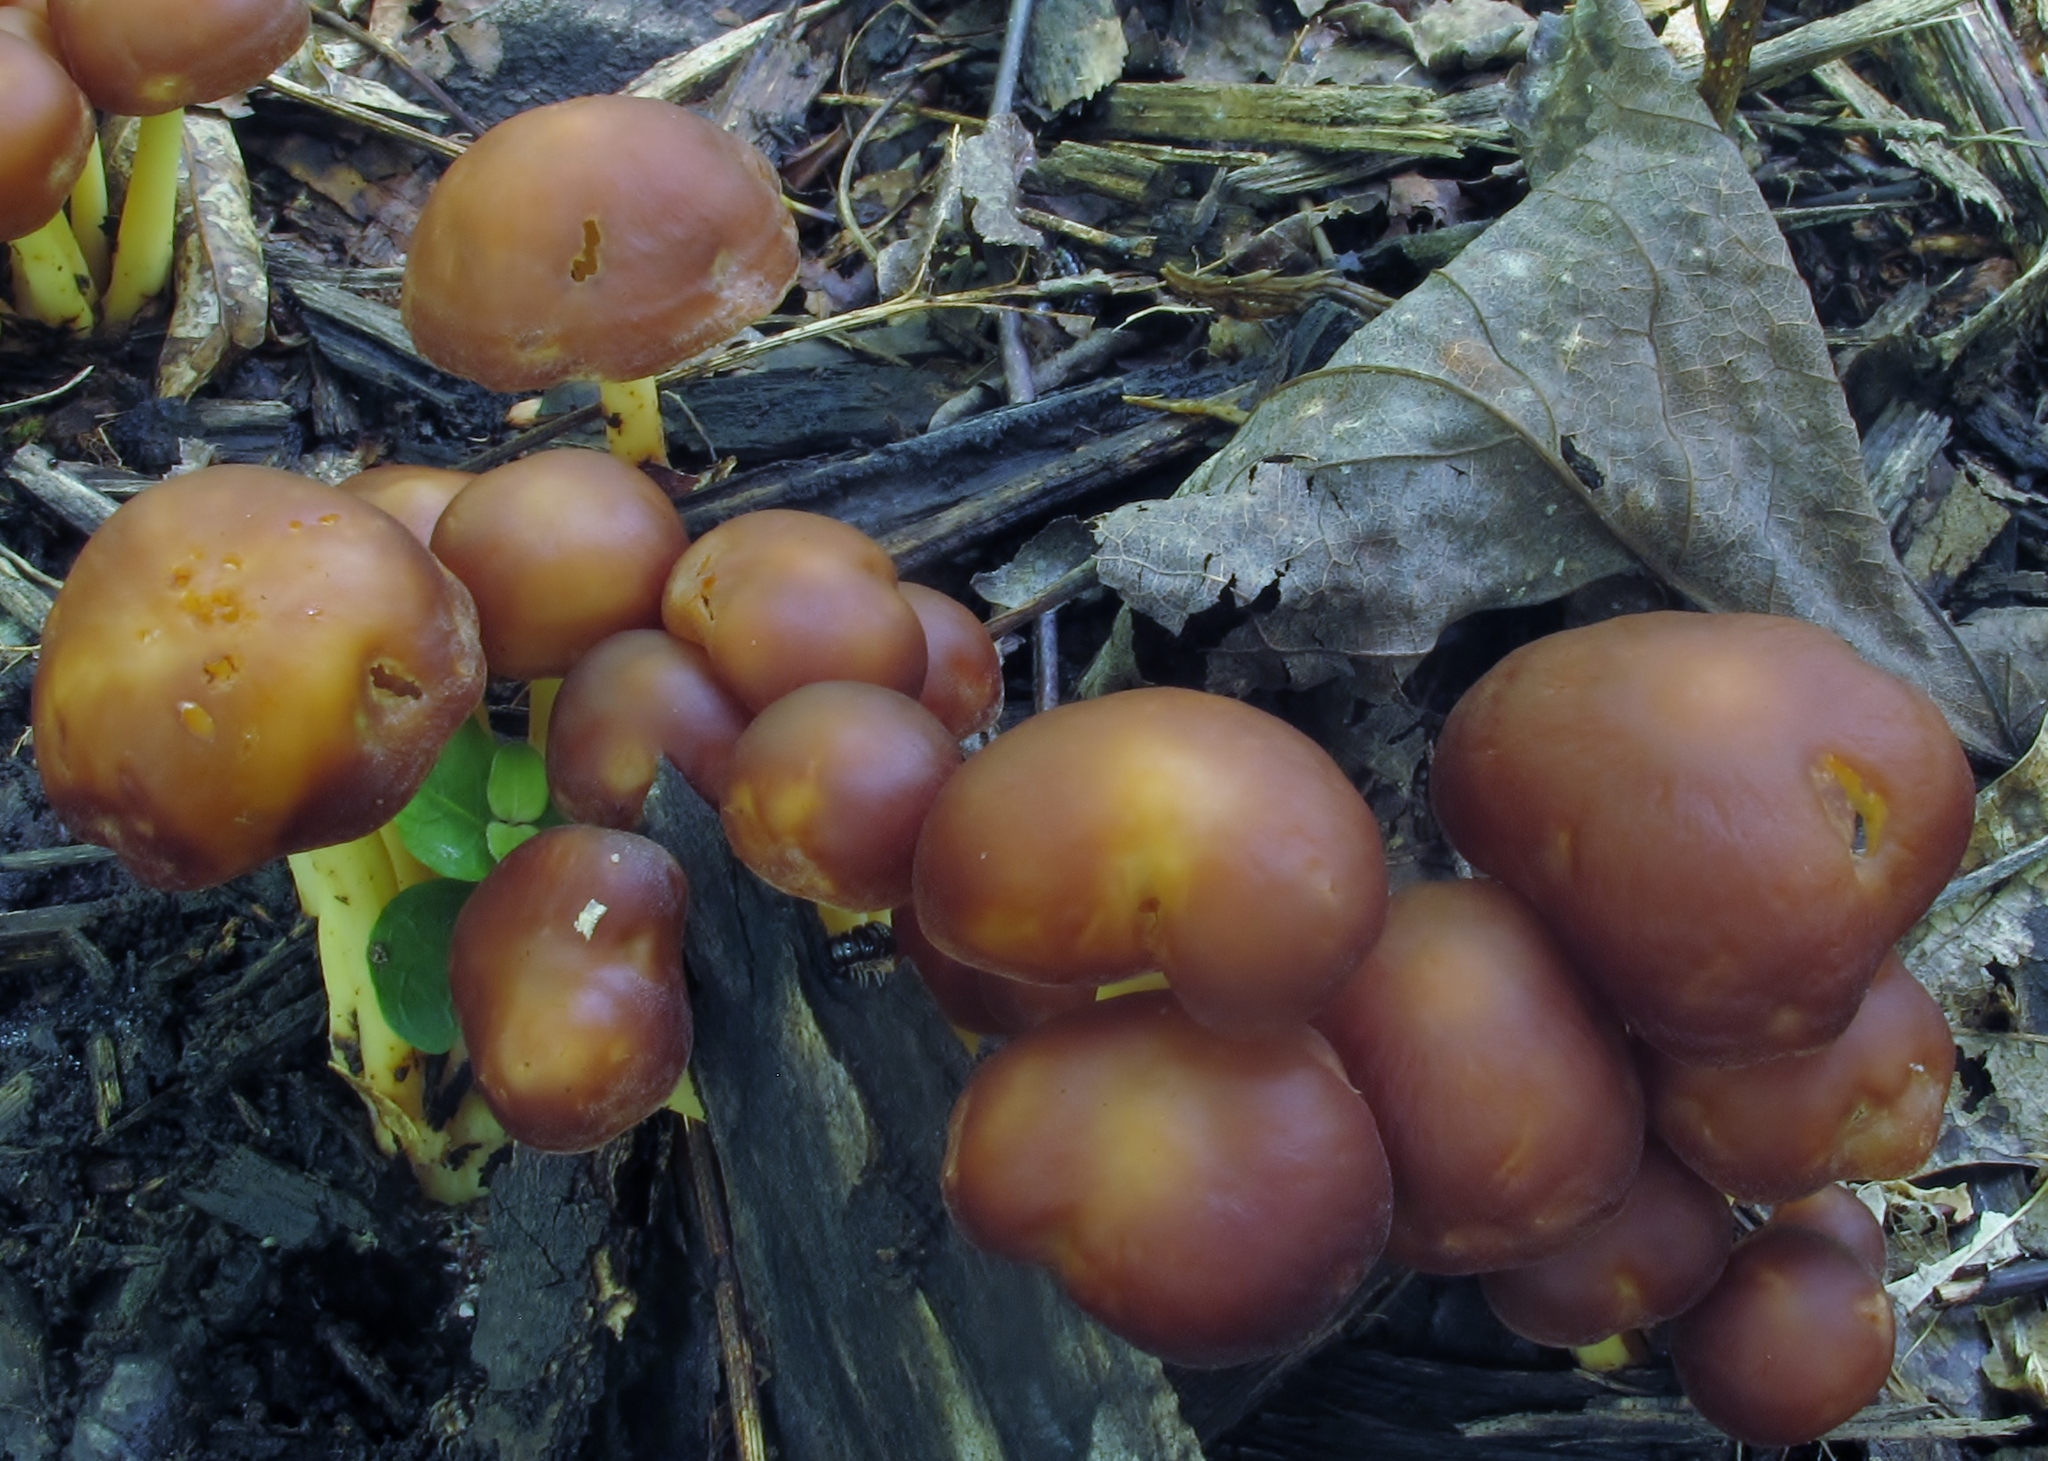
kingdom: Fungi
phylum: Basidiomycota
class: Agaricomycetes
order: Agaricales
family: Omphalotaceae
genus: Gymnopus
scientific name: Gymnopus dryophilus
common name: Penny top
